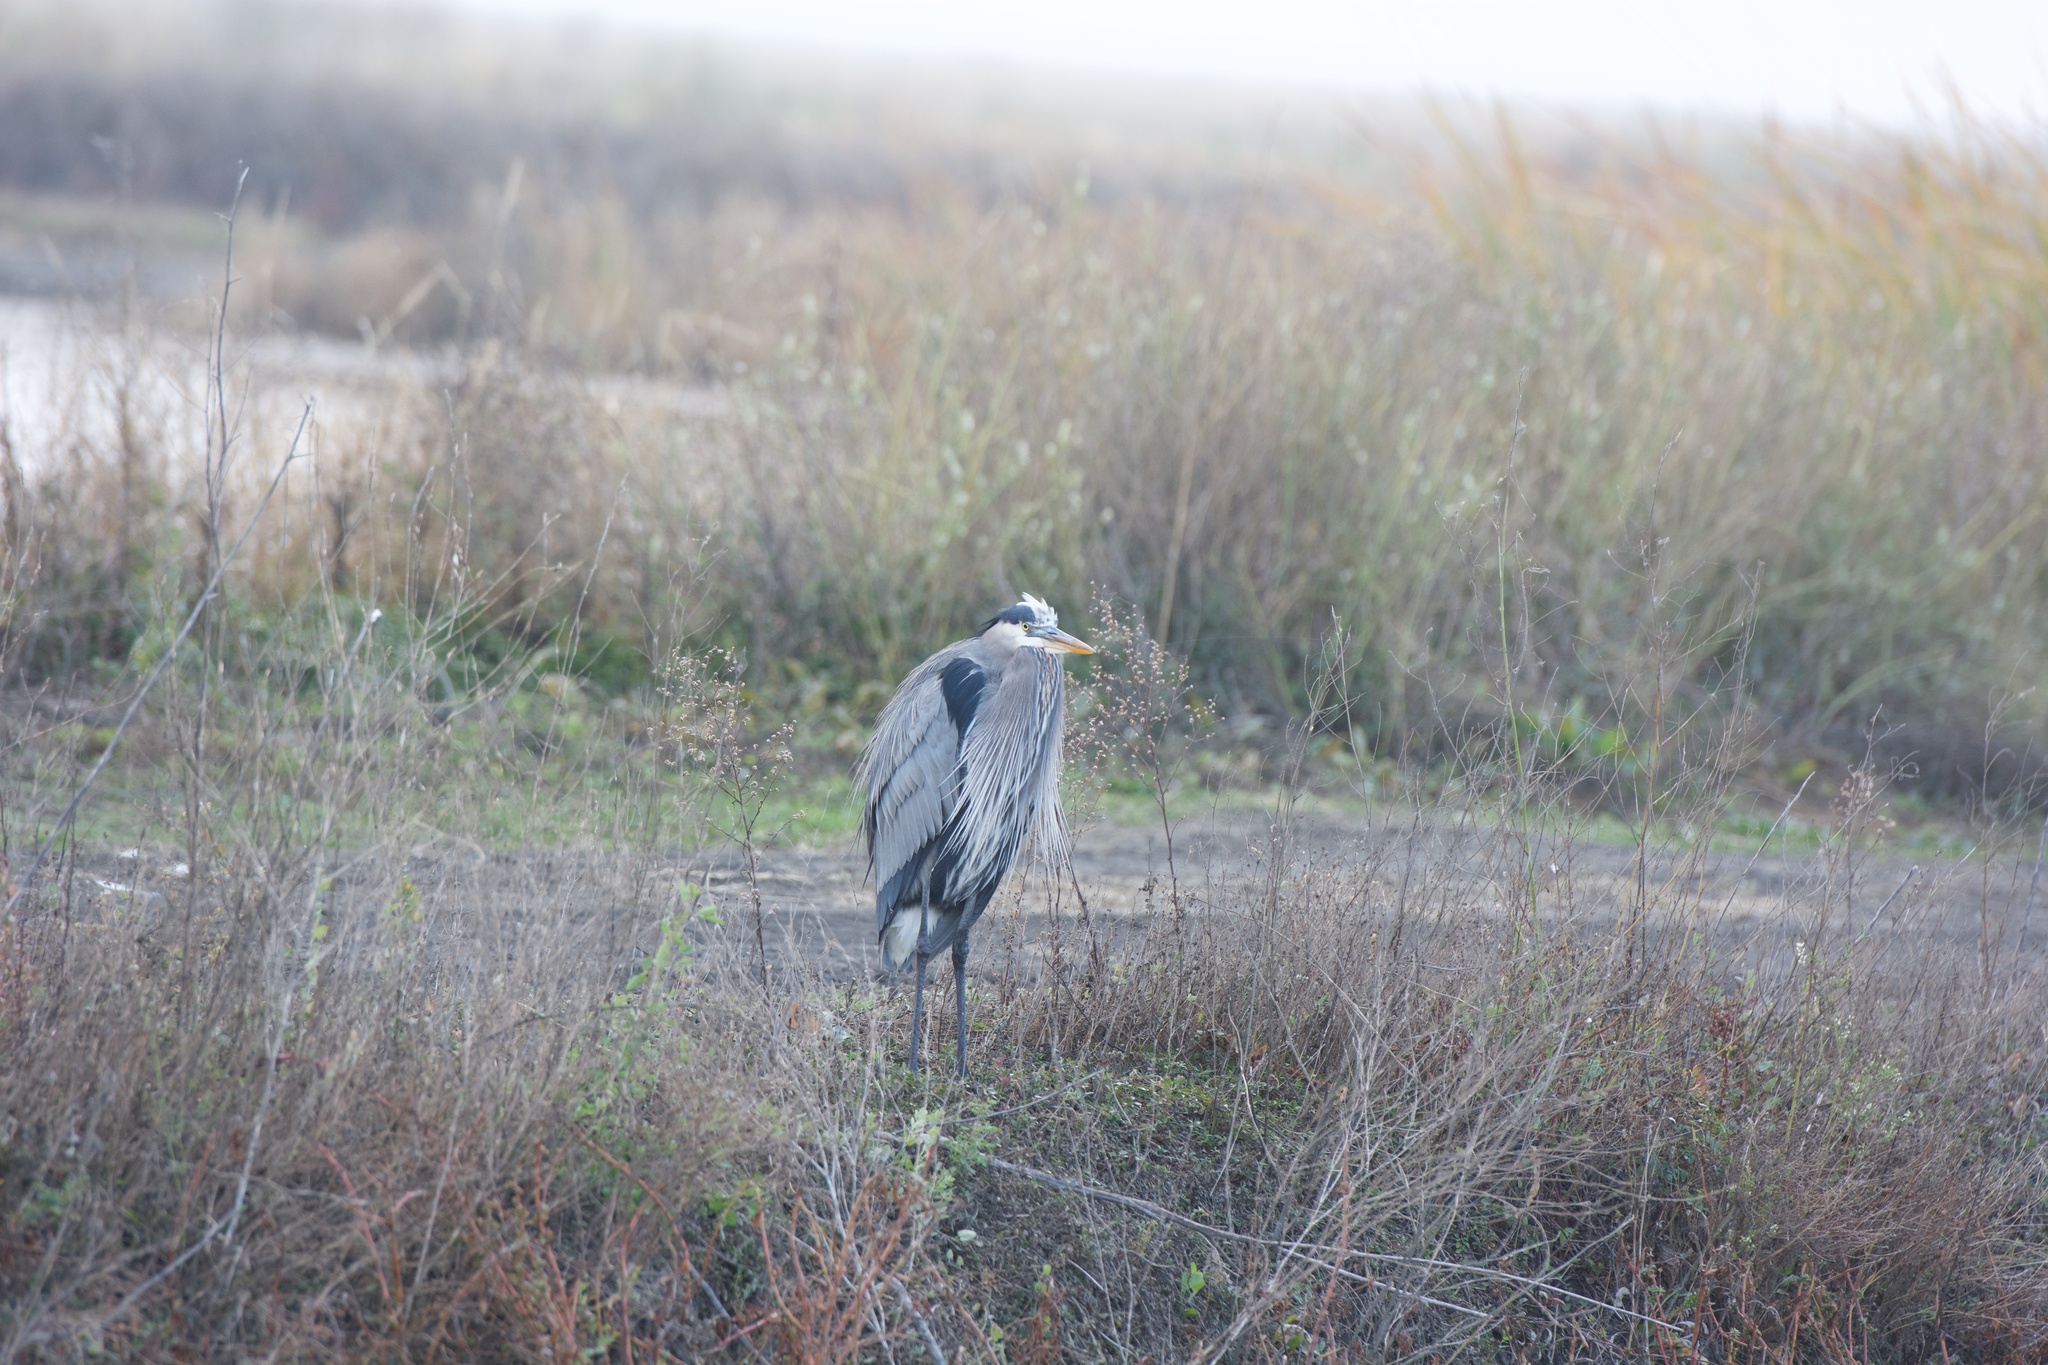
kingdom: Animalia
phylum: Chordata
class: Aves
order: Pelecaniformes
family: Ardeidae
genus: Ardea
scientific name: Ardea herodias
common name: Great blue heron
